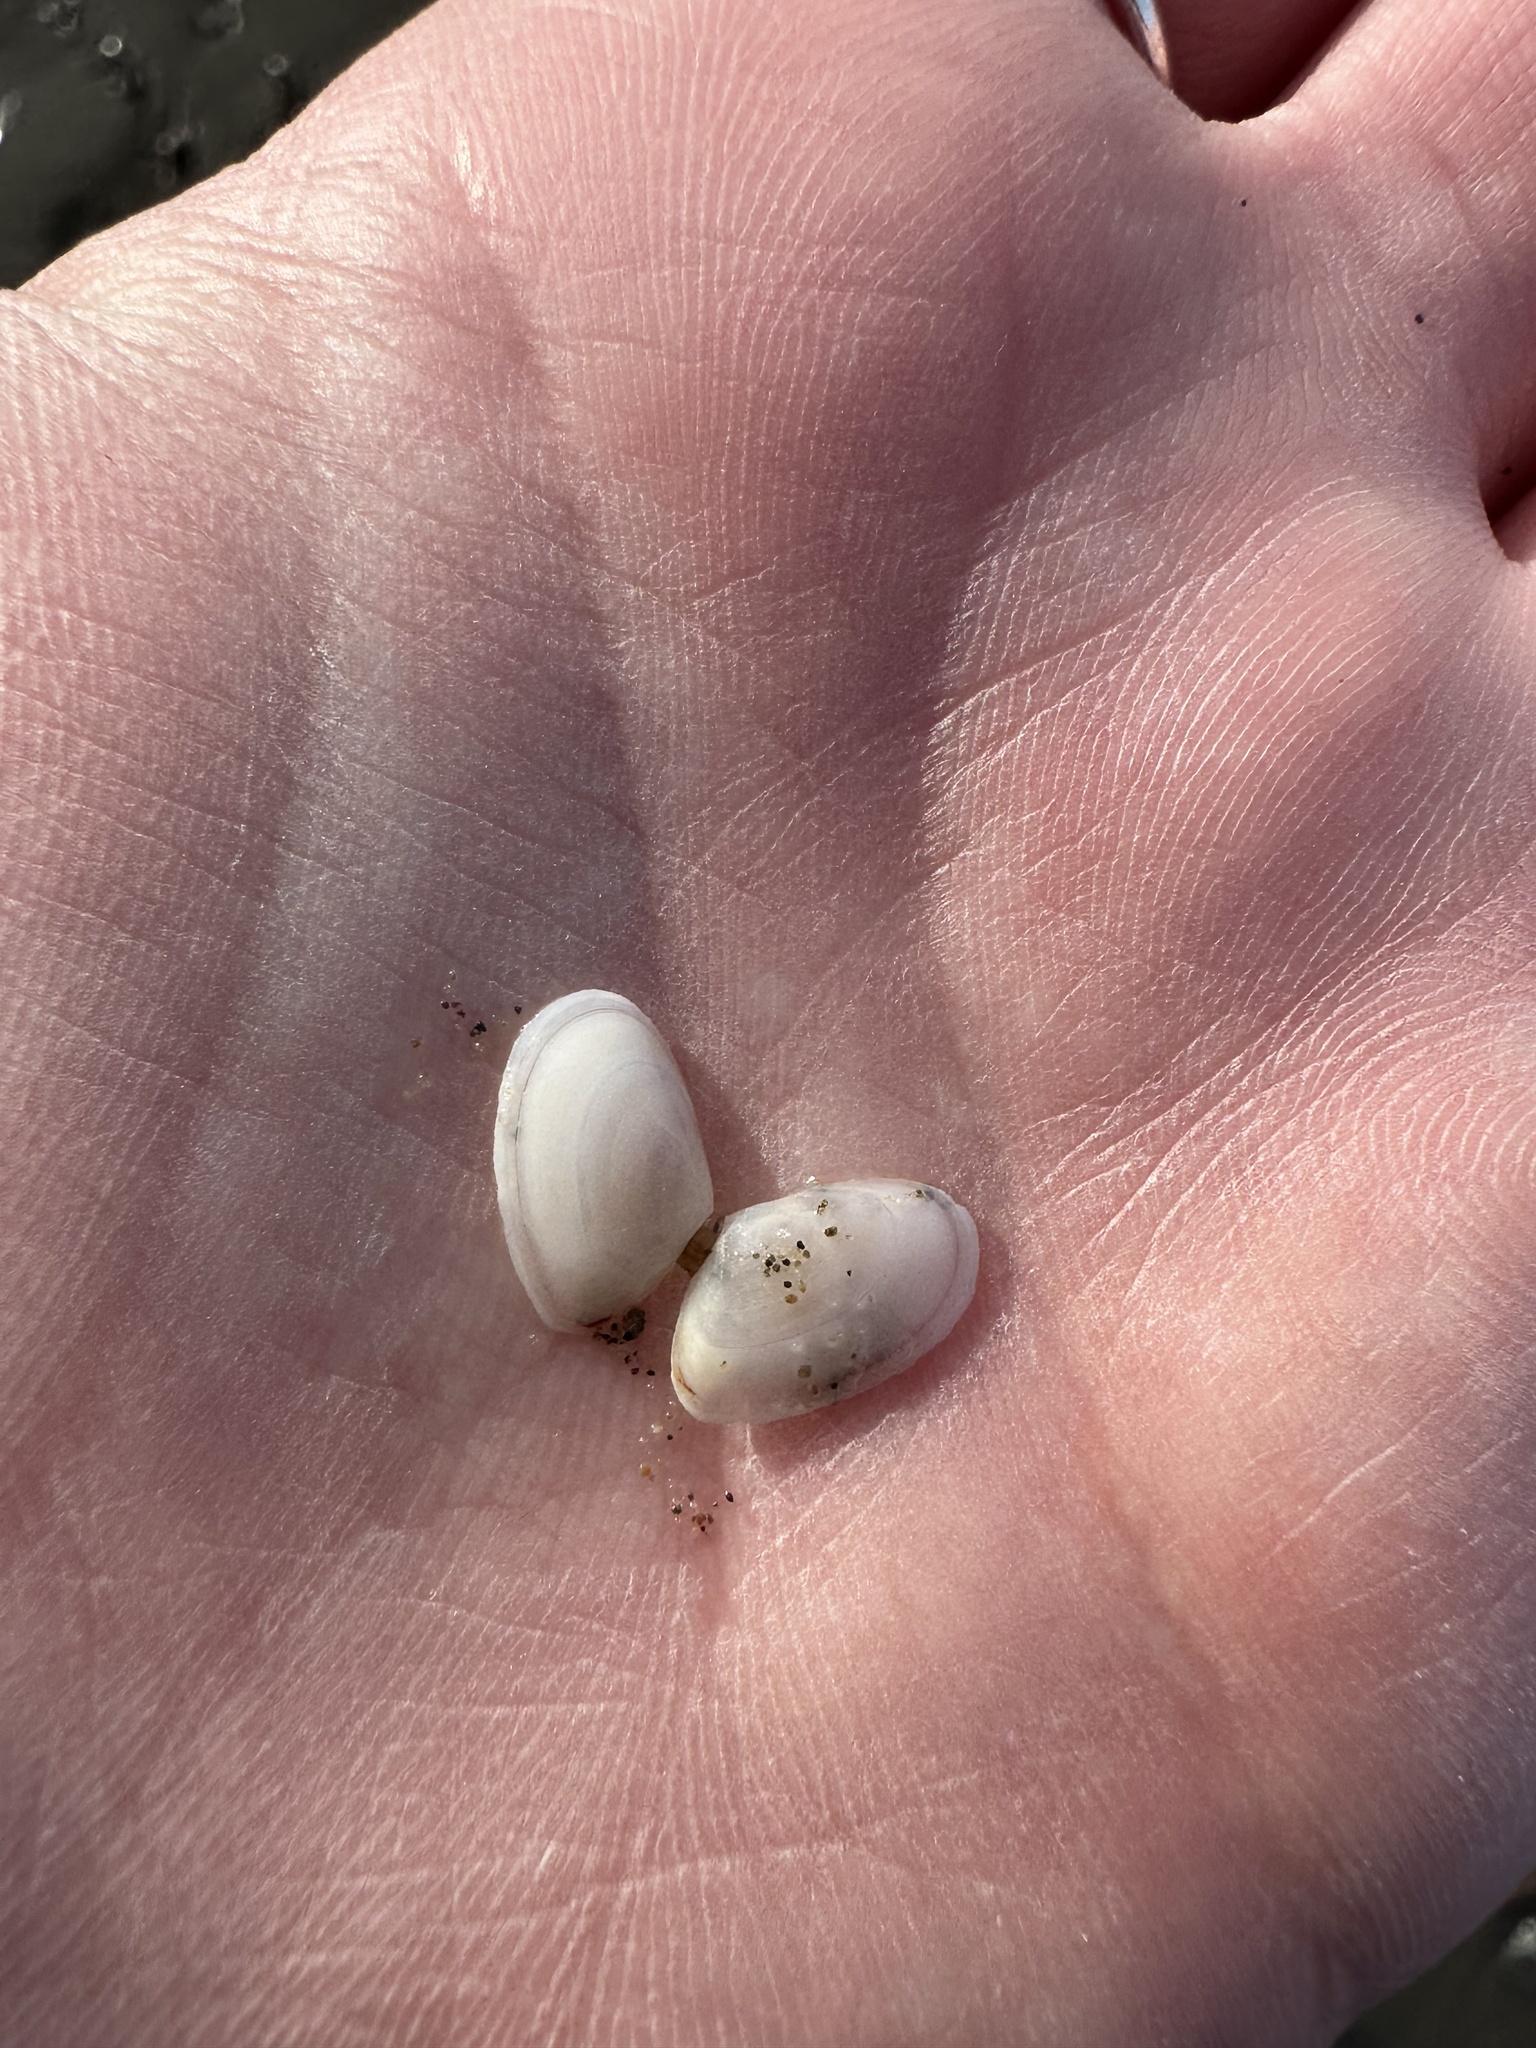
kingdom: Animalia
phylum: Mollusca
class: Bivalvia
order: Cardiida
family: Tellinidae
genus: Ameritella
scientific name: Ameritella agilis
